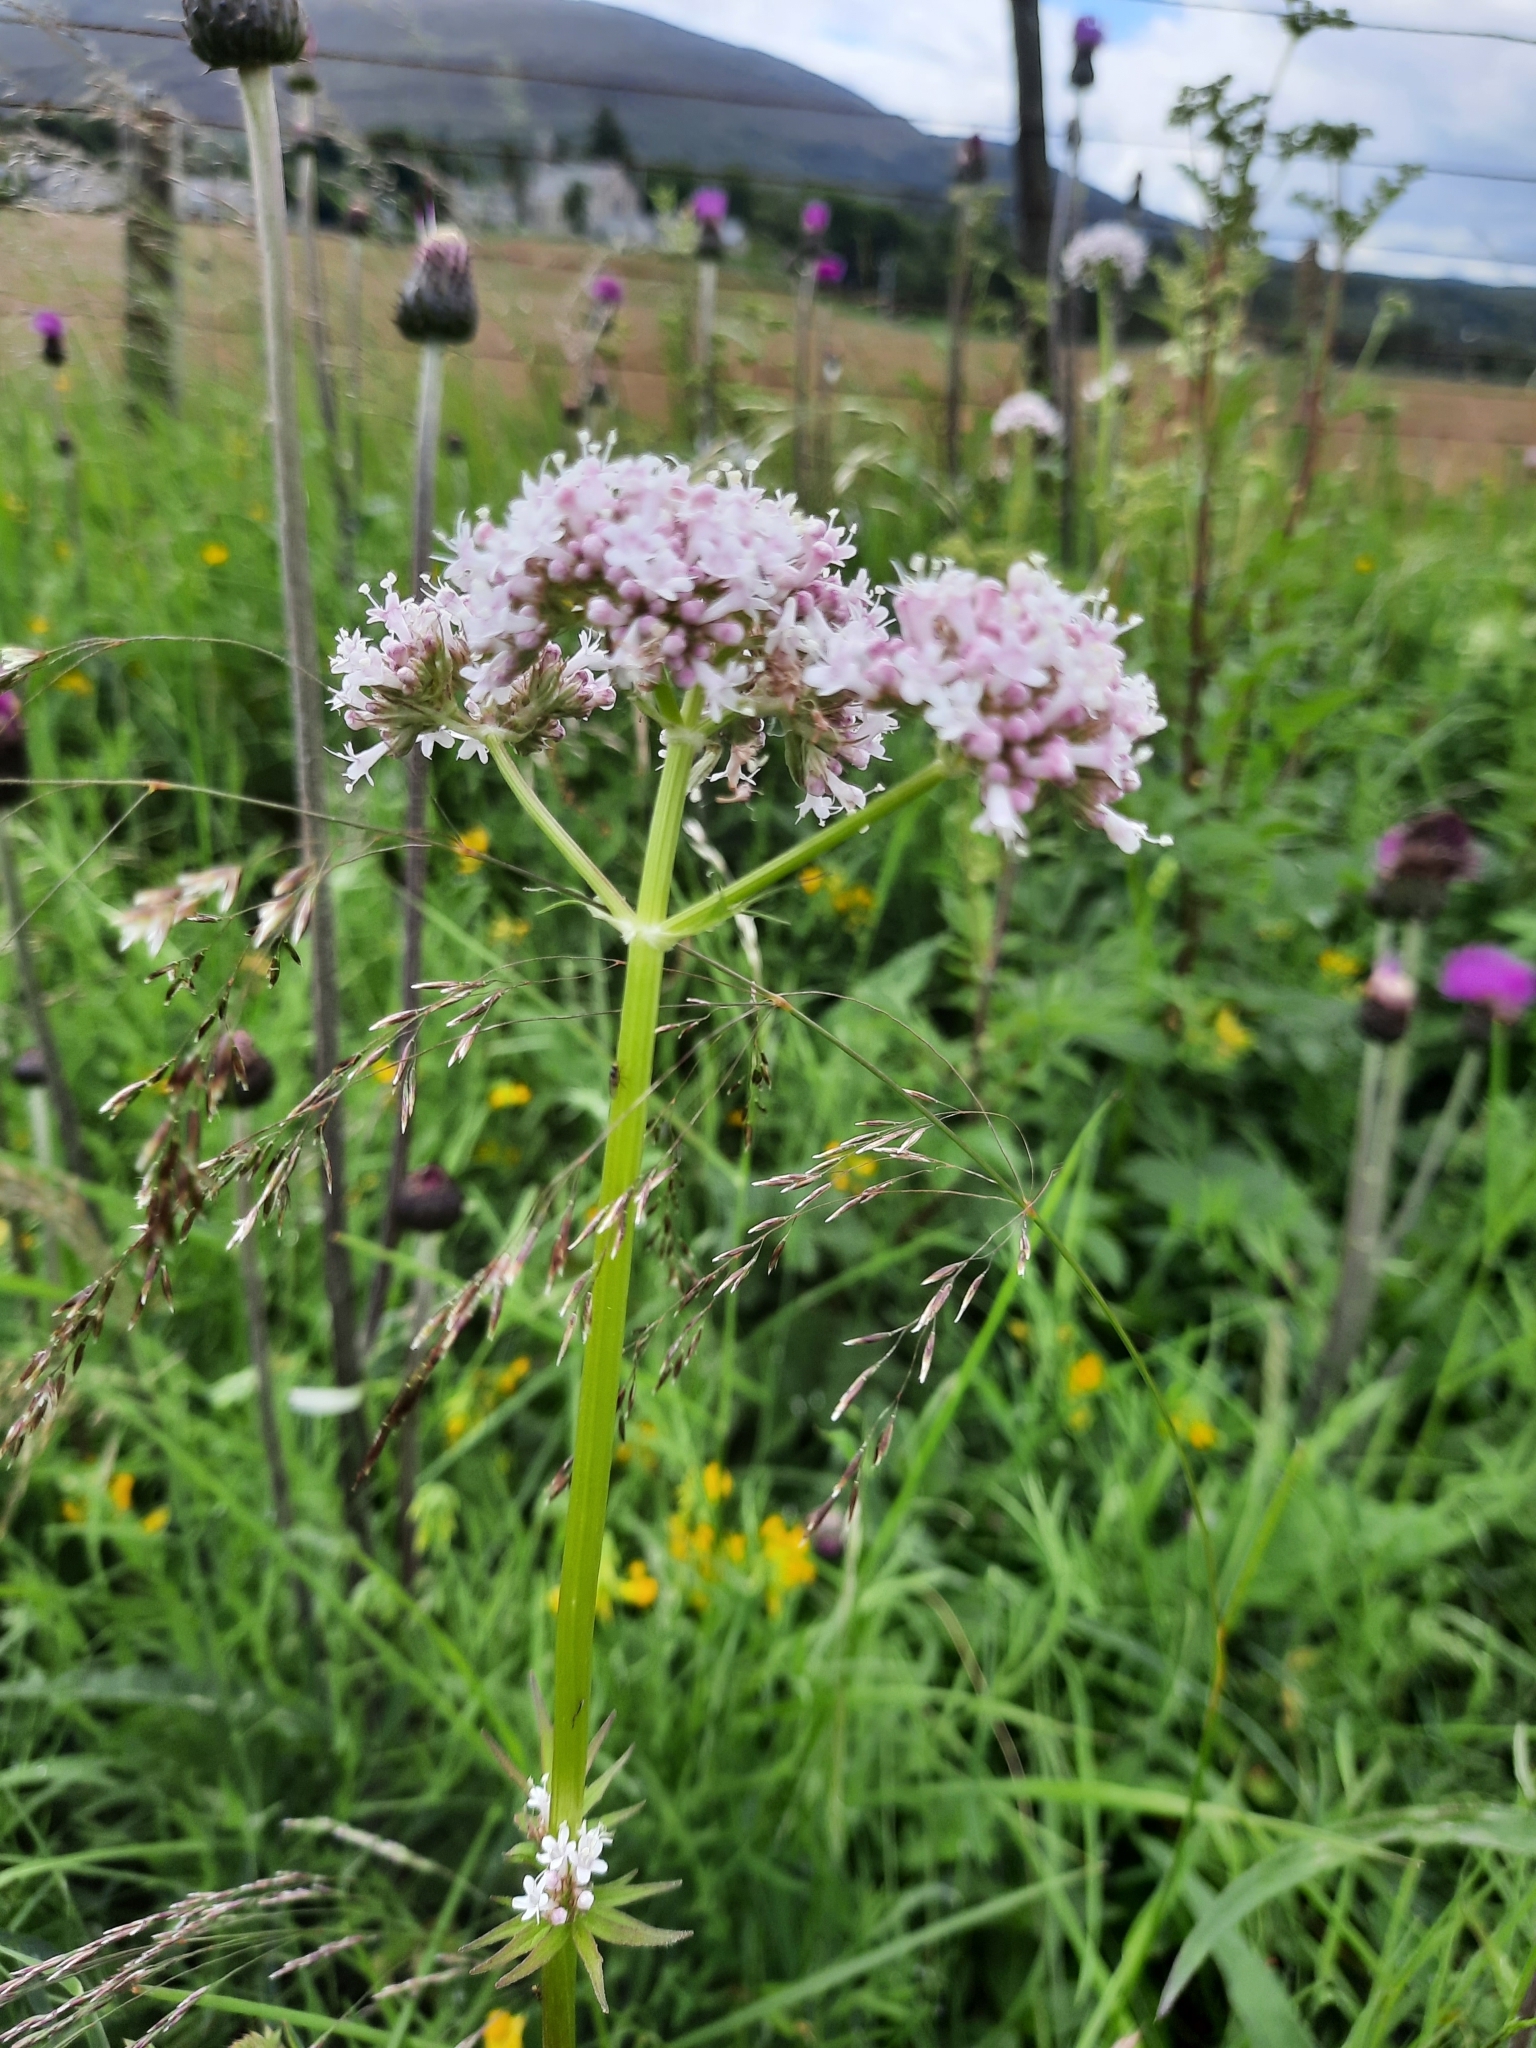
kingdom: Plantae
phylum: Tracheophyta
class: Magnoliopsida
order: Dipsacales
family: Caprifoliaceae
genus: Valeriana
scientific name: Valeriana officinalis
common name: Common valerian
